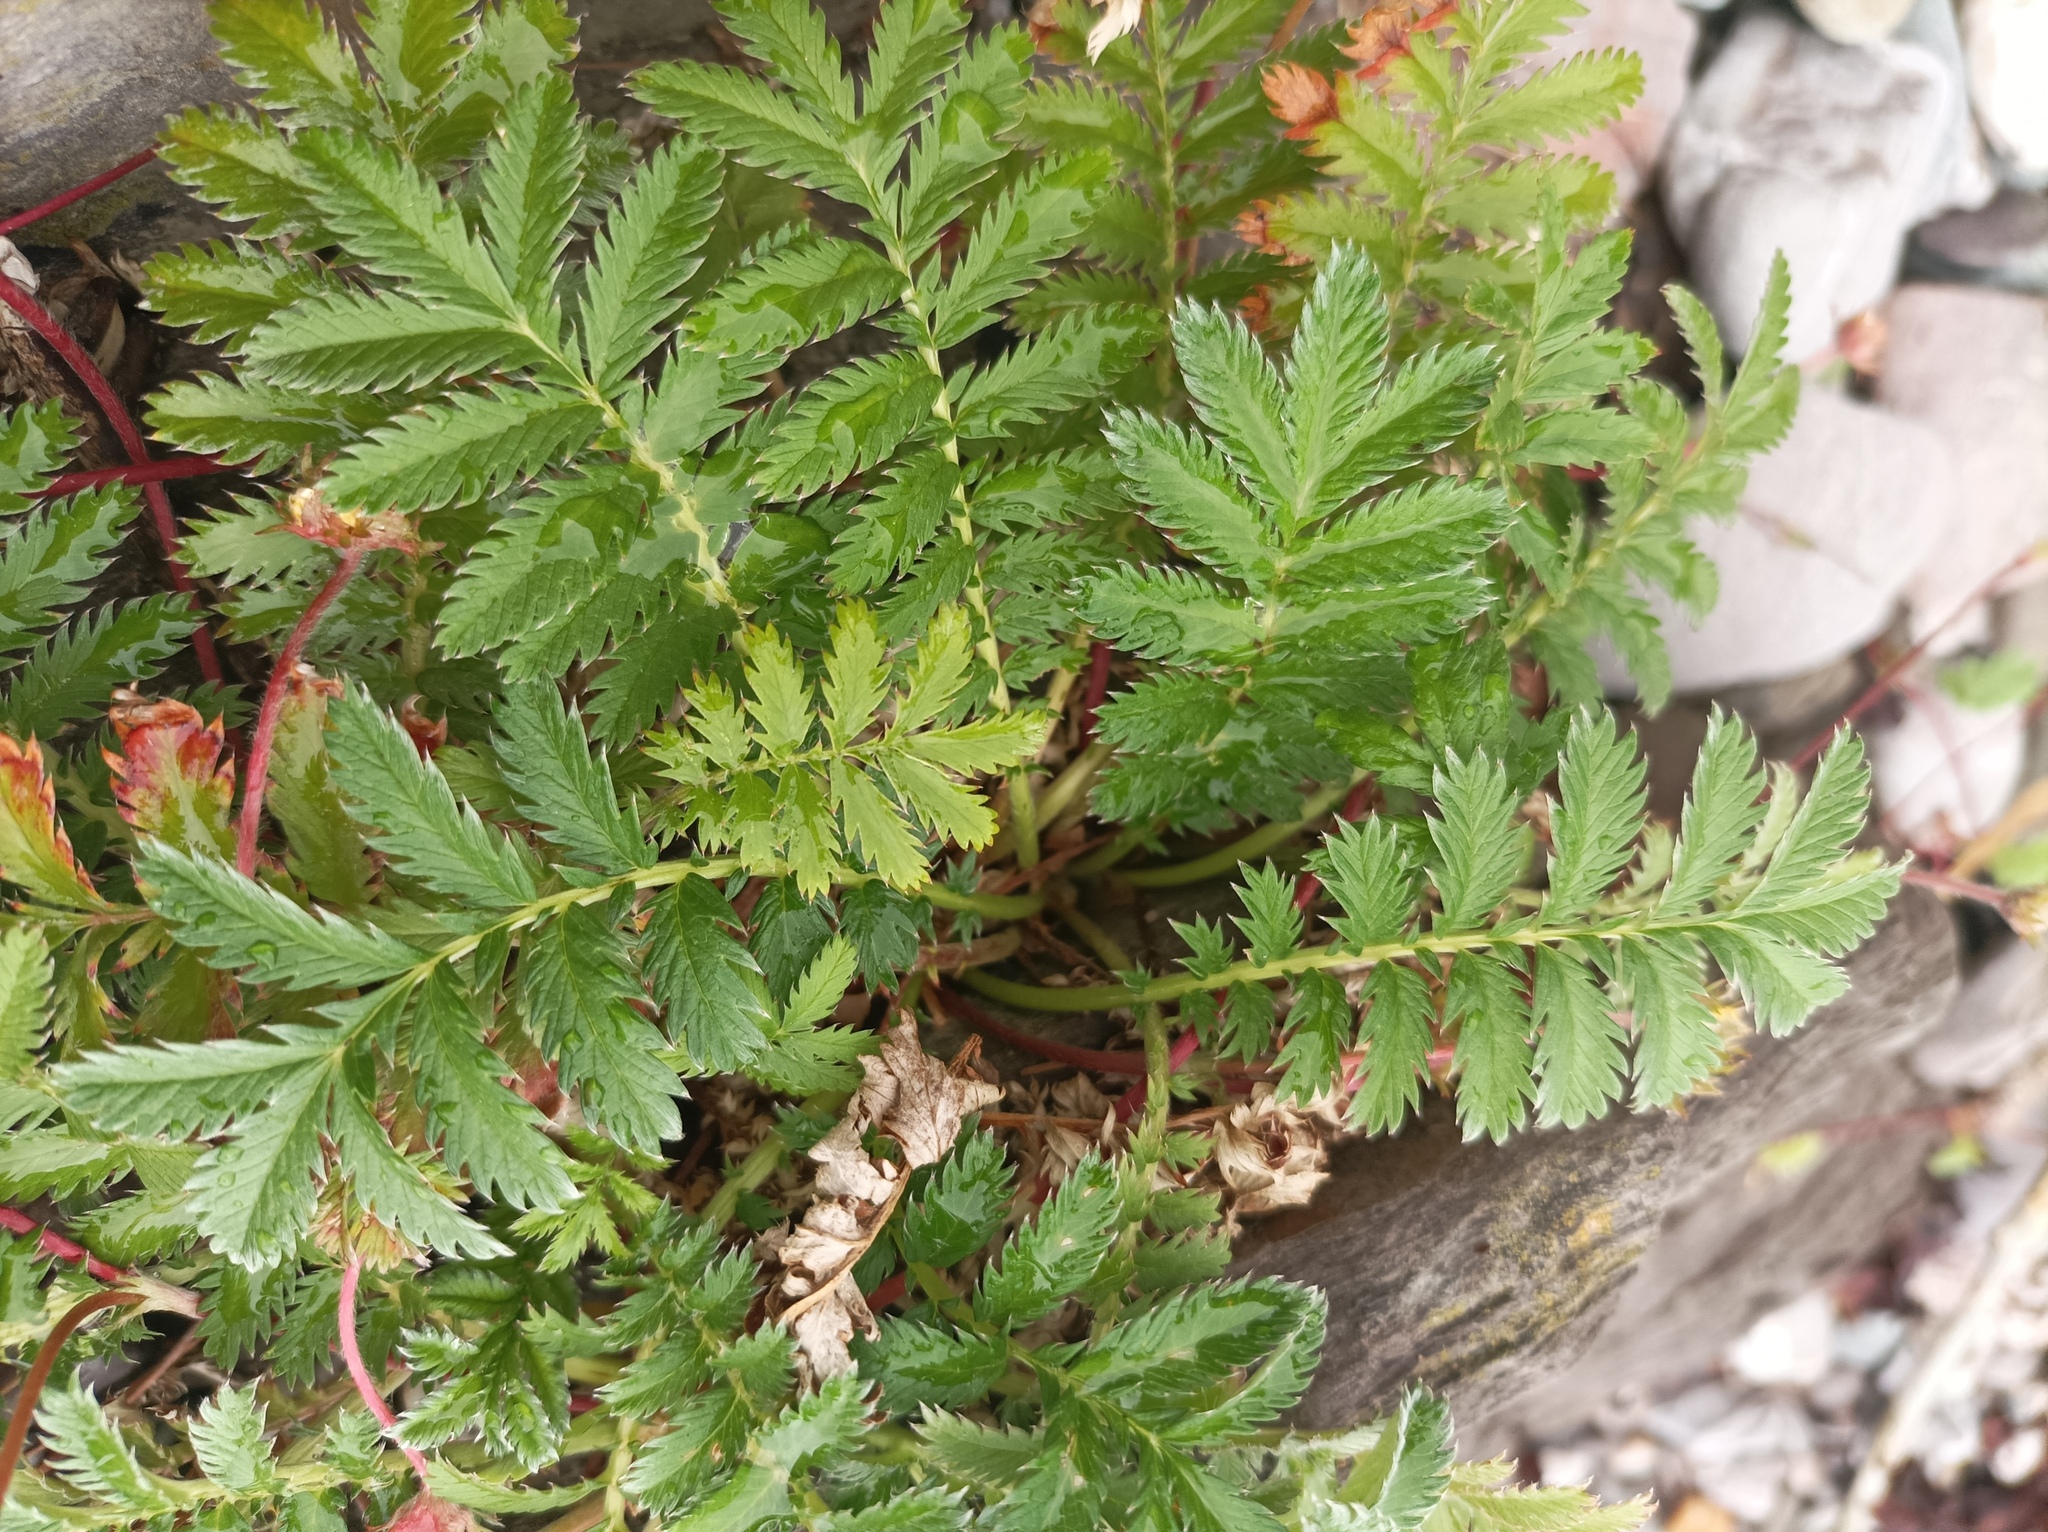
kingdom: Plantae
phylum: Tracheophyta
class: Magnoliopsida
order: Rosales
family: Rosaceae
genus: Argentina
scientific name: Argentina anserina
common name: Common silverweed
